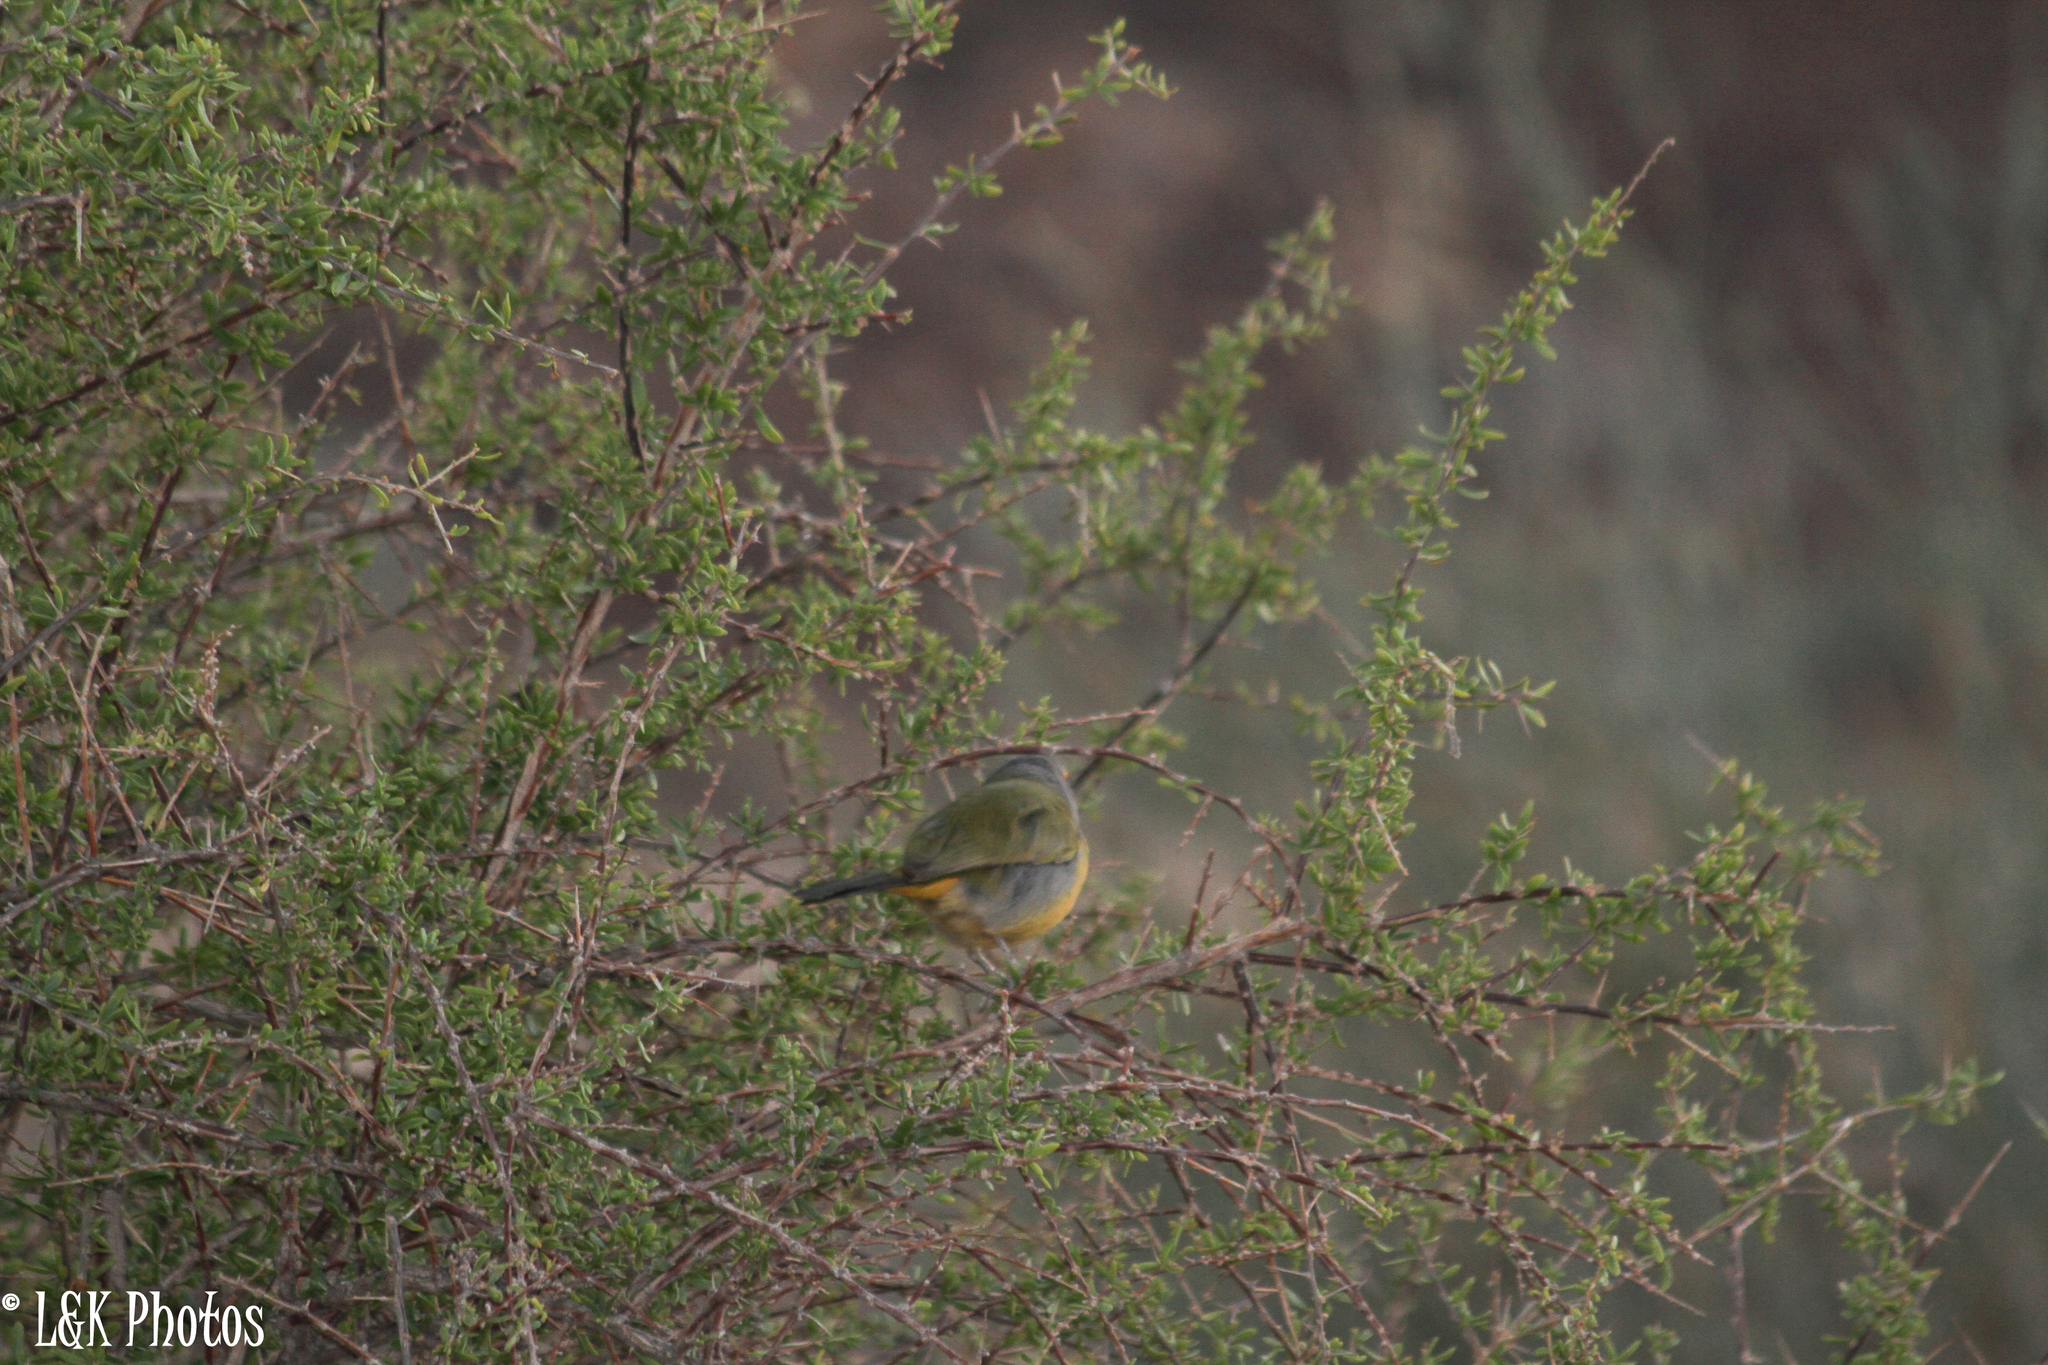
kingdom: Animalia
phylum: Chordata
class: Aves
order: Passeriformes
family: Malaconotidae
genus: Telophorus
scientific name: Telophorus zeylonus
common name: Bokmakierie
